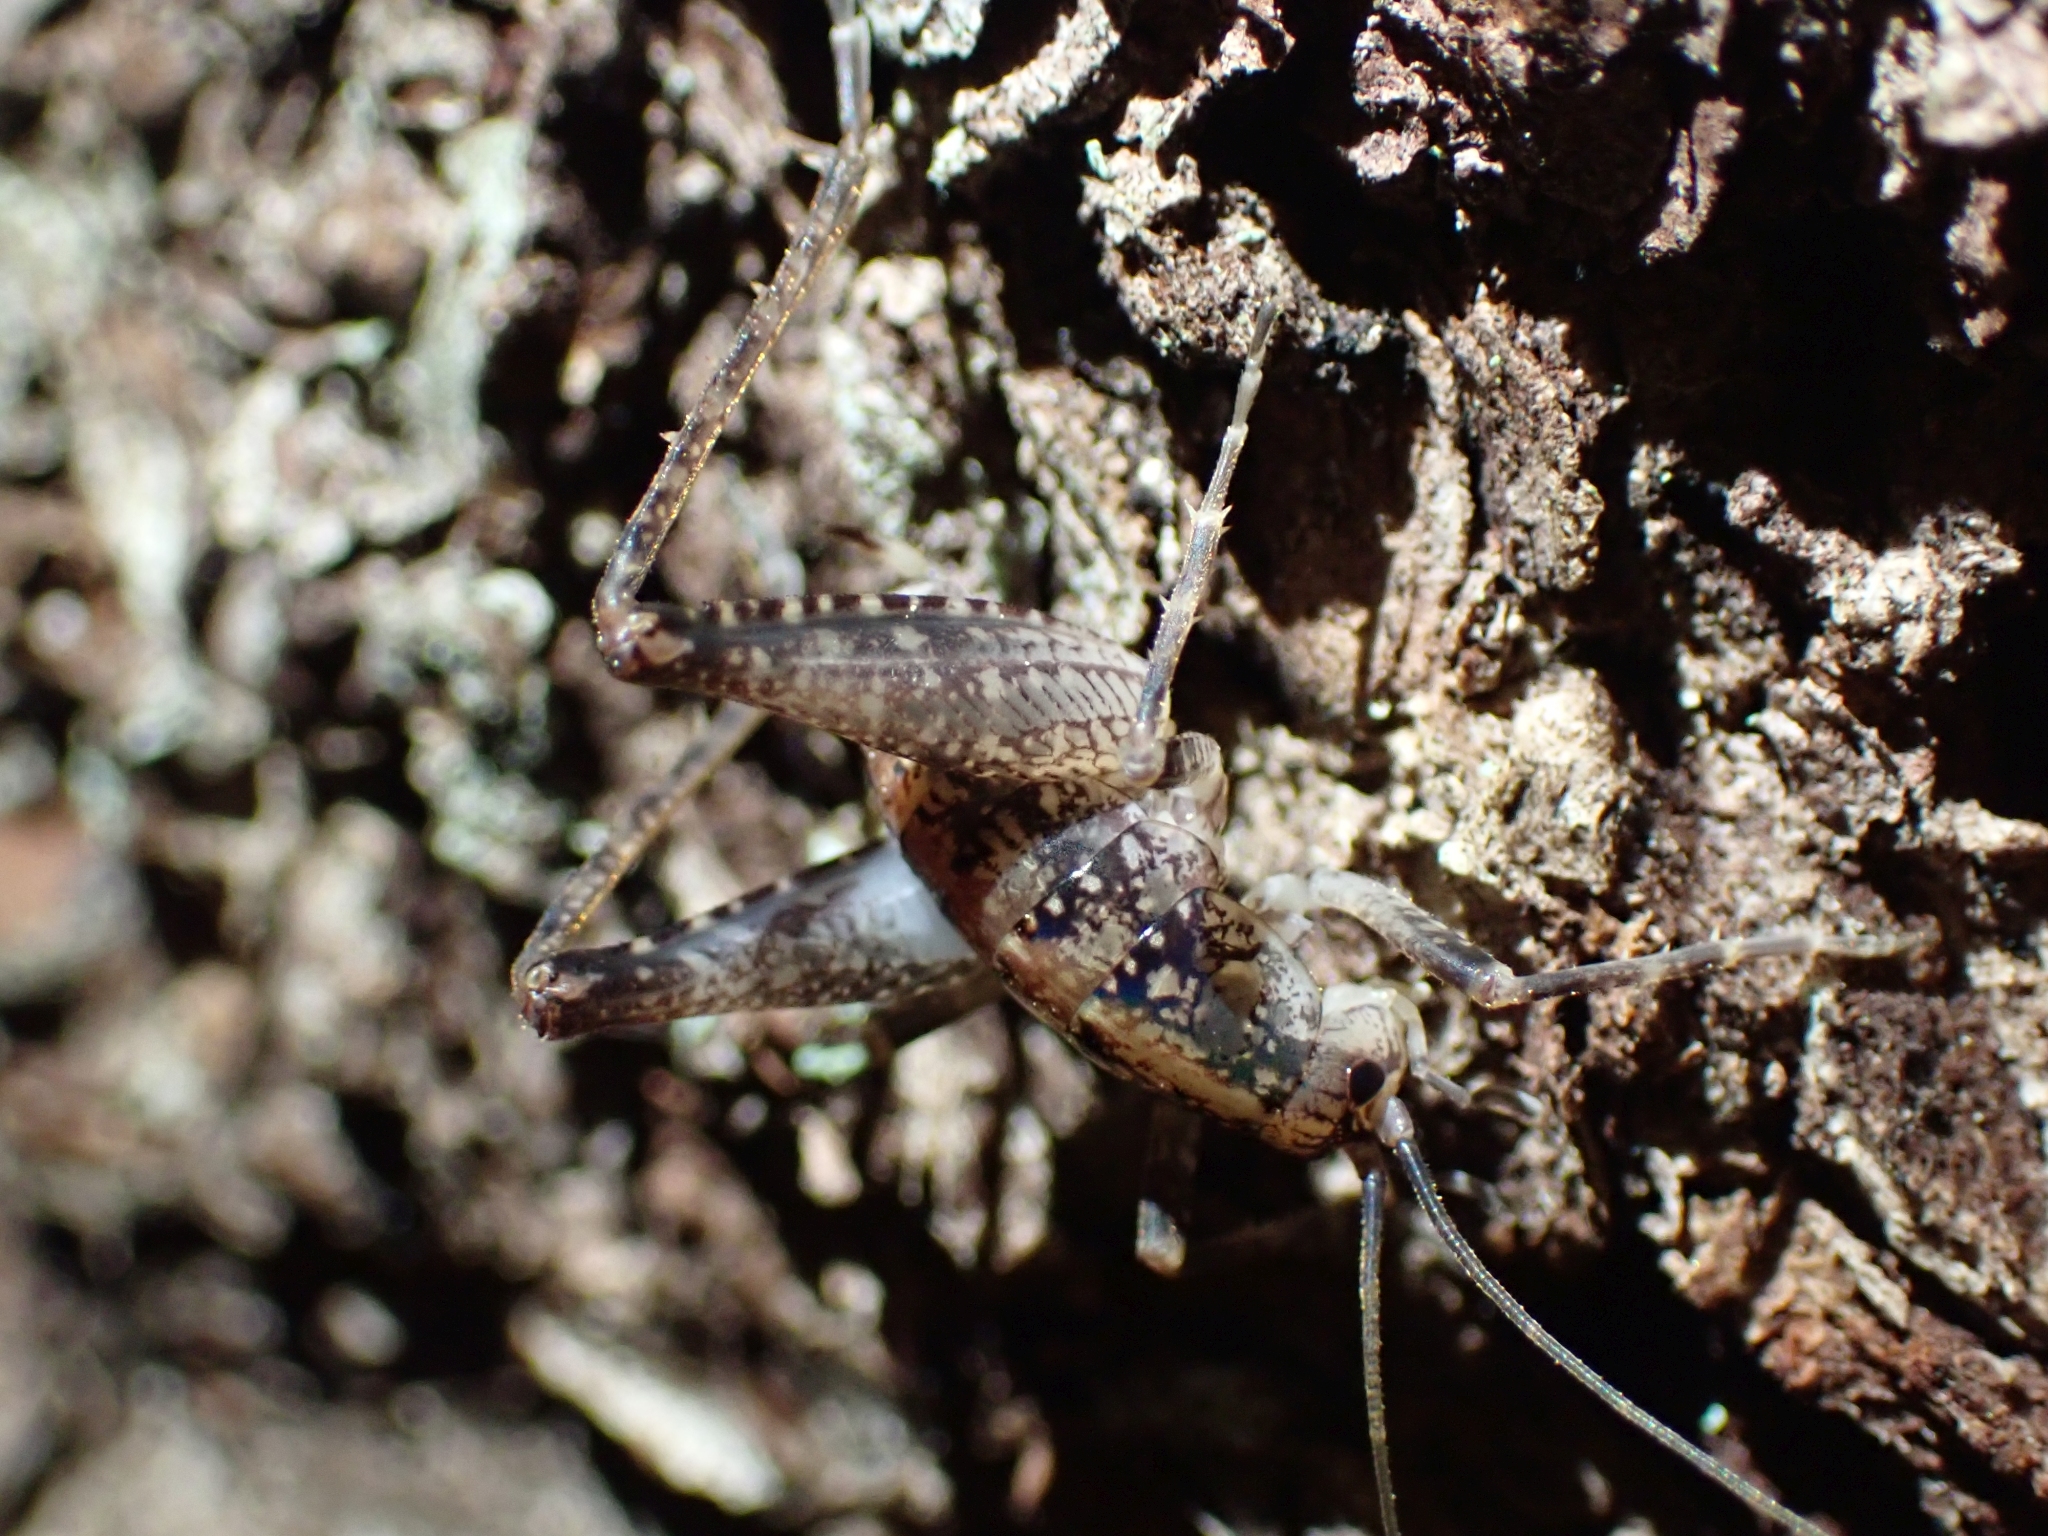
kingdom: Animalia
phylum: Arthropoda
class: Insecta
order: Orthoptera
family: Rhaphidophoridae
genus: Pristoceuthophilus
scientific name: Pristoceuthophilus celatus
